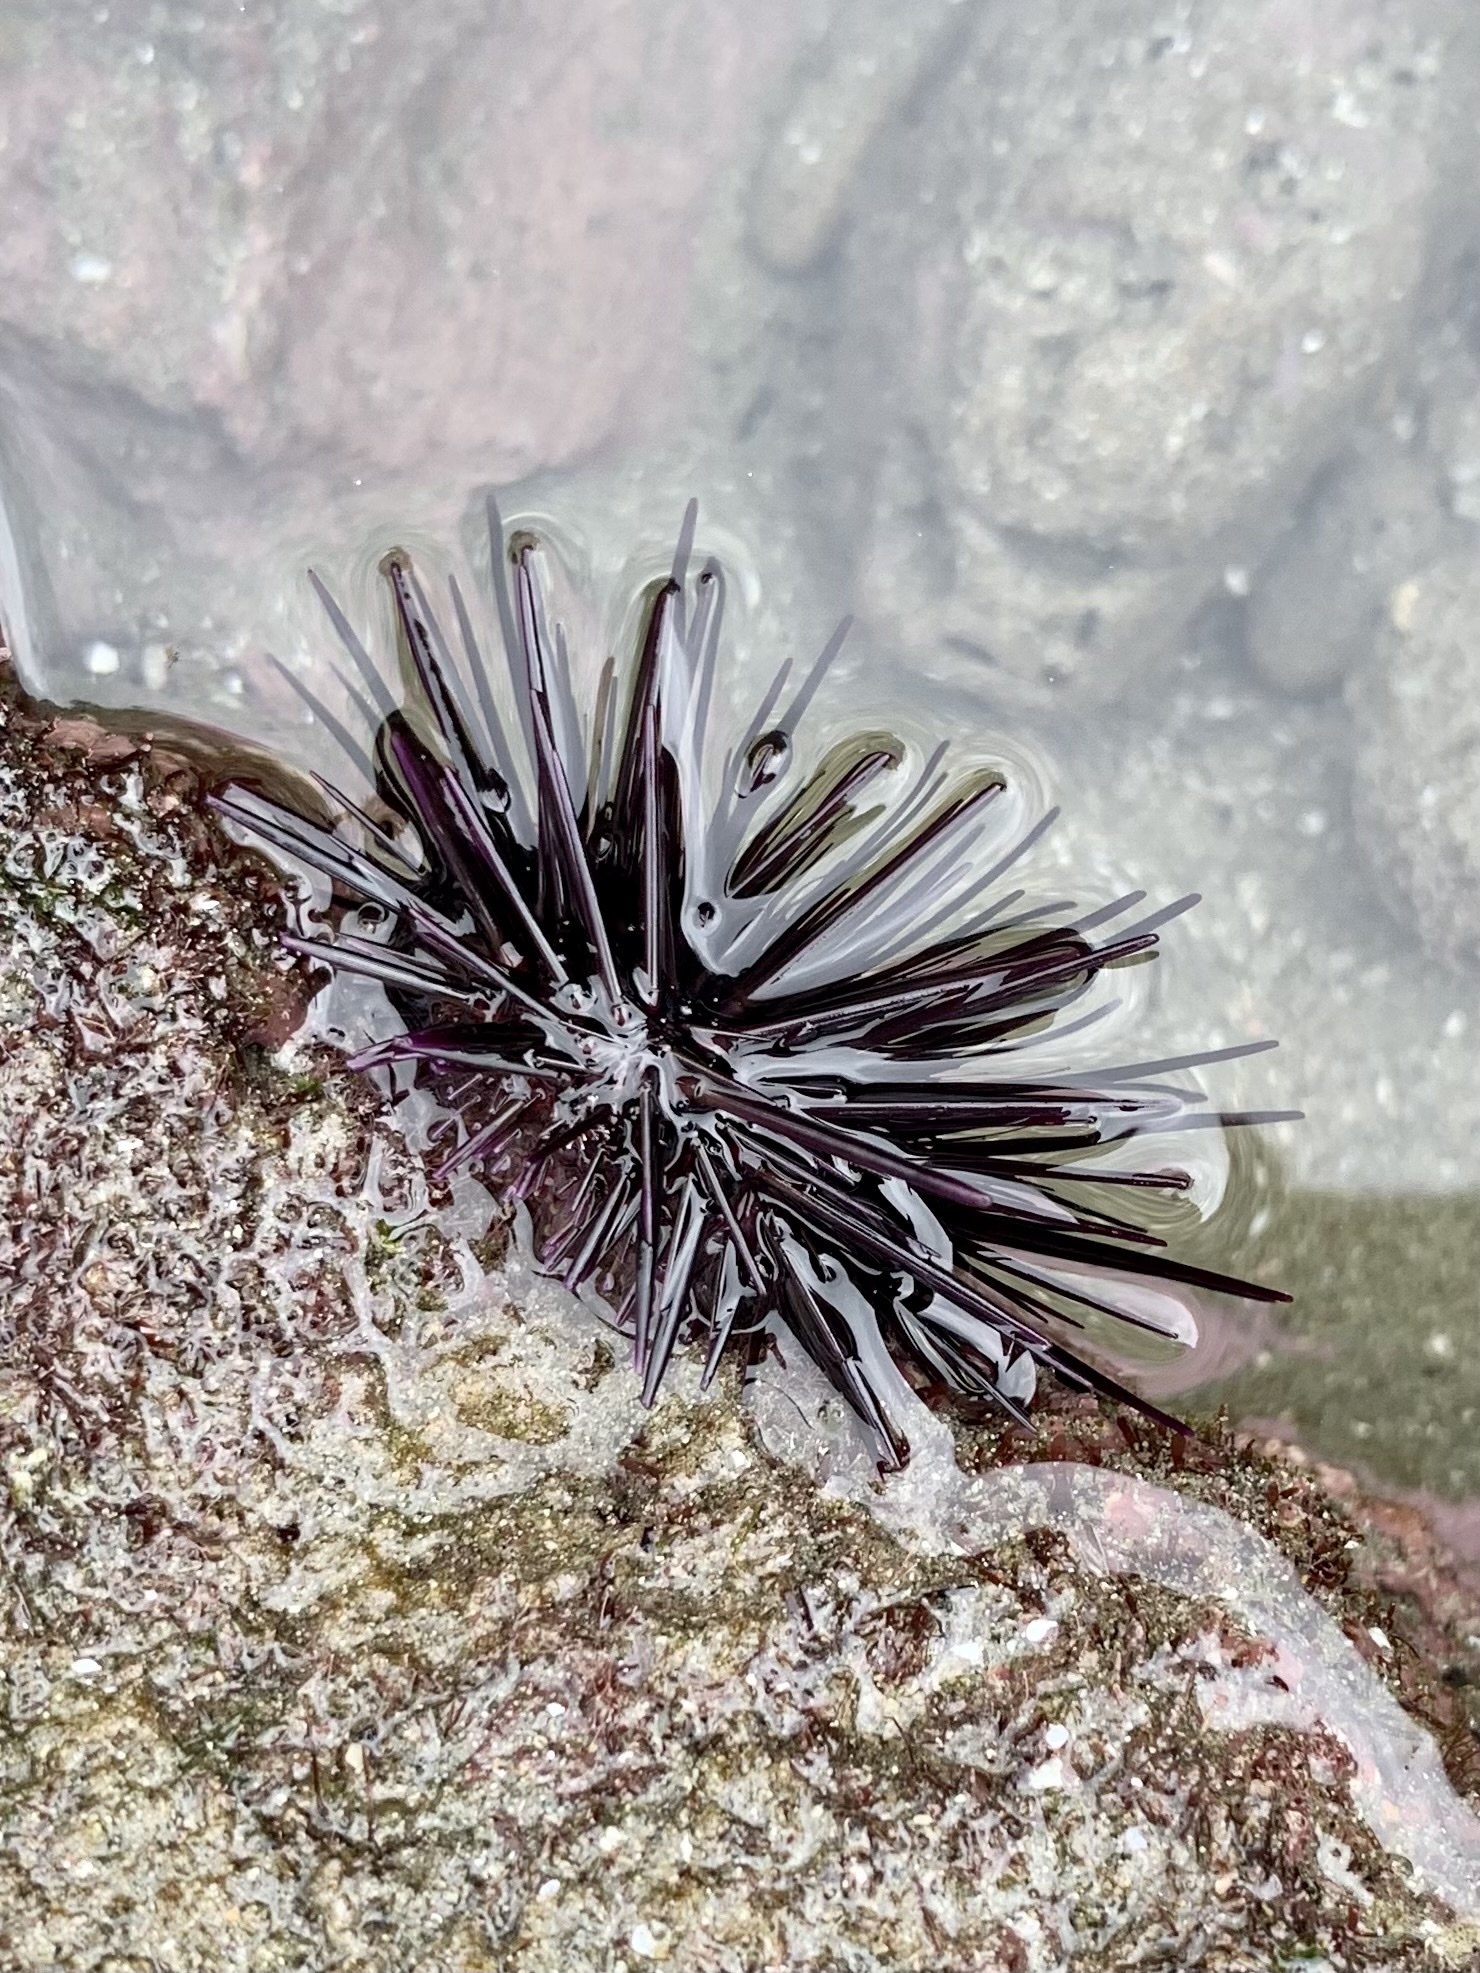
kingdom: Animalia
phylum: Echinodermata
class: Echinoidea
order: Camarodonta
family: Echinometridae
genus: Echinometra
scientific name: Echinometra vanbrunti
